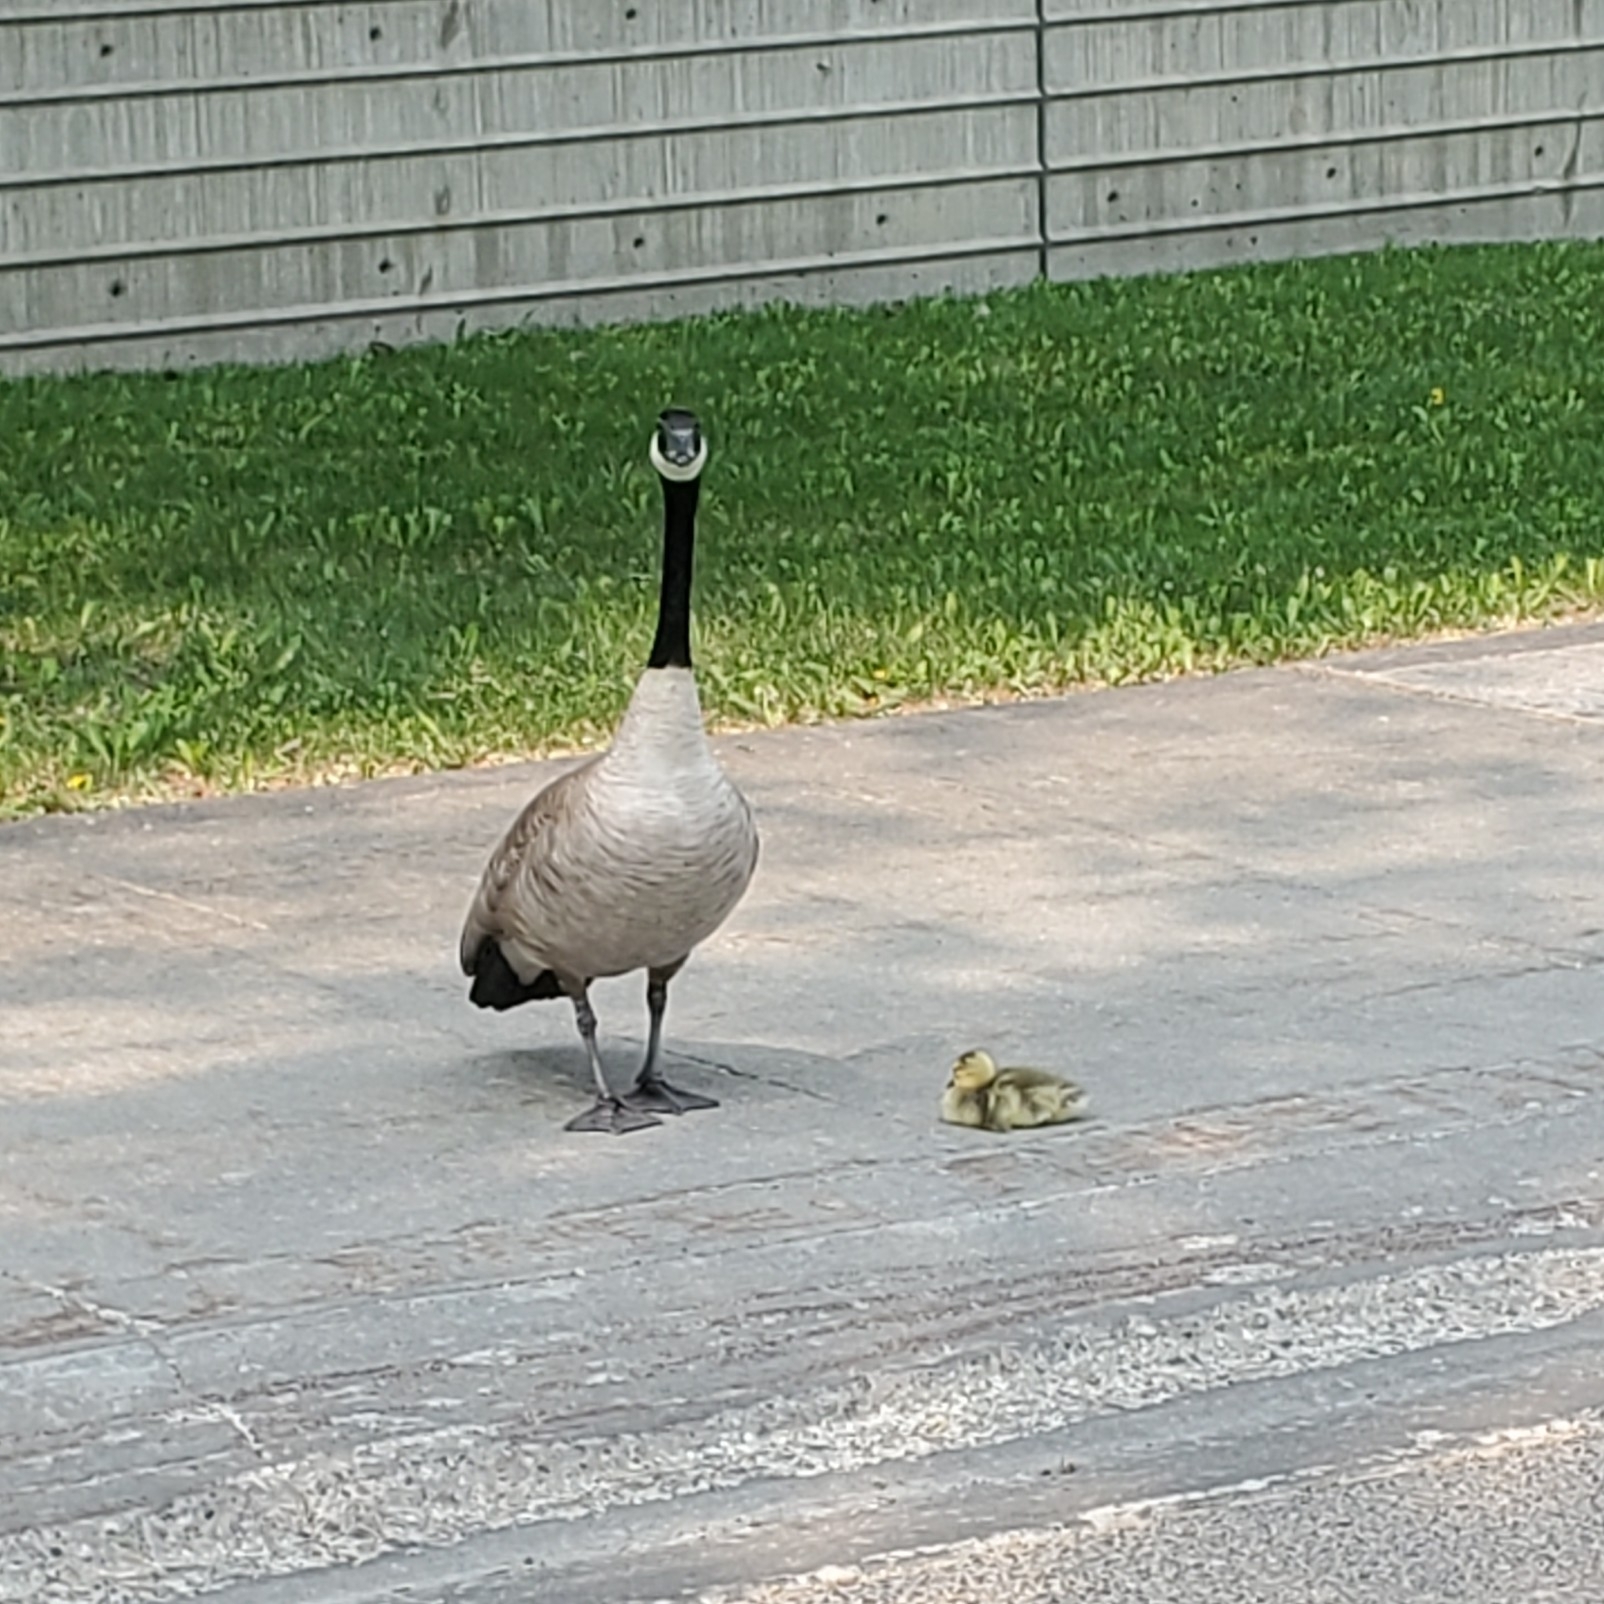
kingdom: Animalia
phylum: Chordata
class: Aves
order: Anseriformes
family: Anatidae
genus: Branta
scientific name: Branta canadensis
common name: Canada goose
